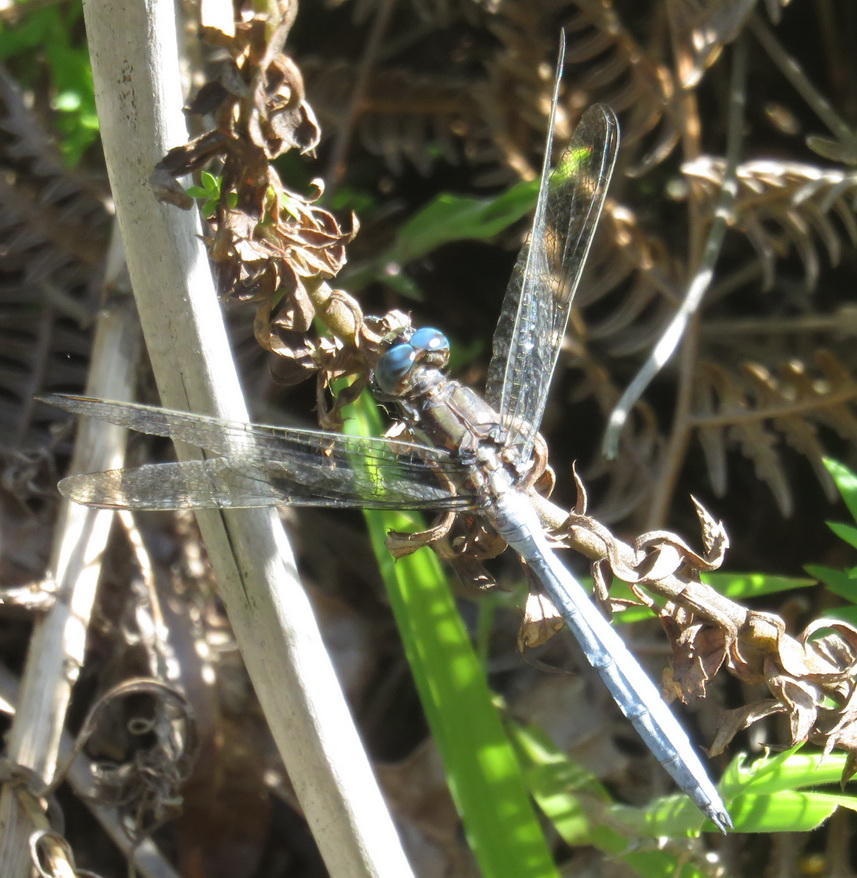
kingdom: Animalia
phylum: Arthropoda
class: Insecta
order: Odonata
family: Libellulidae
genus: Orthetrum
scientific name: Orthetrum julia
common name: Julia skimmer
